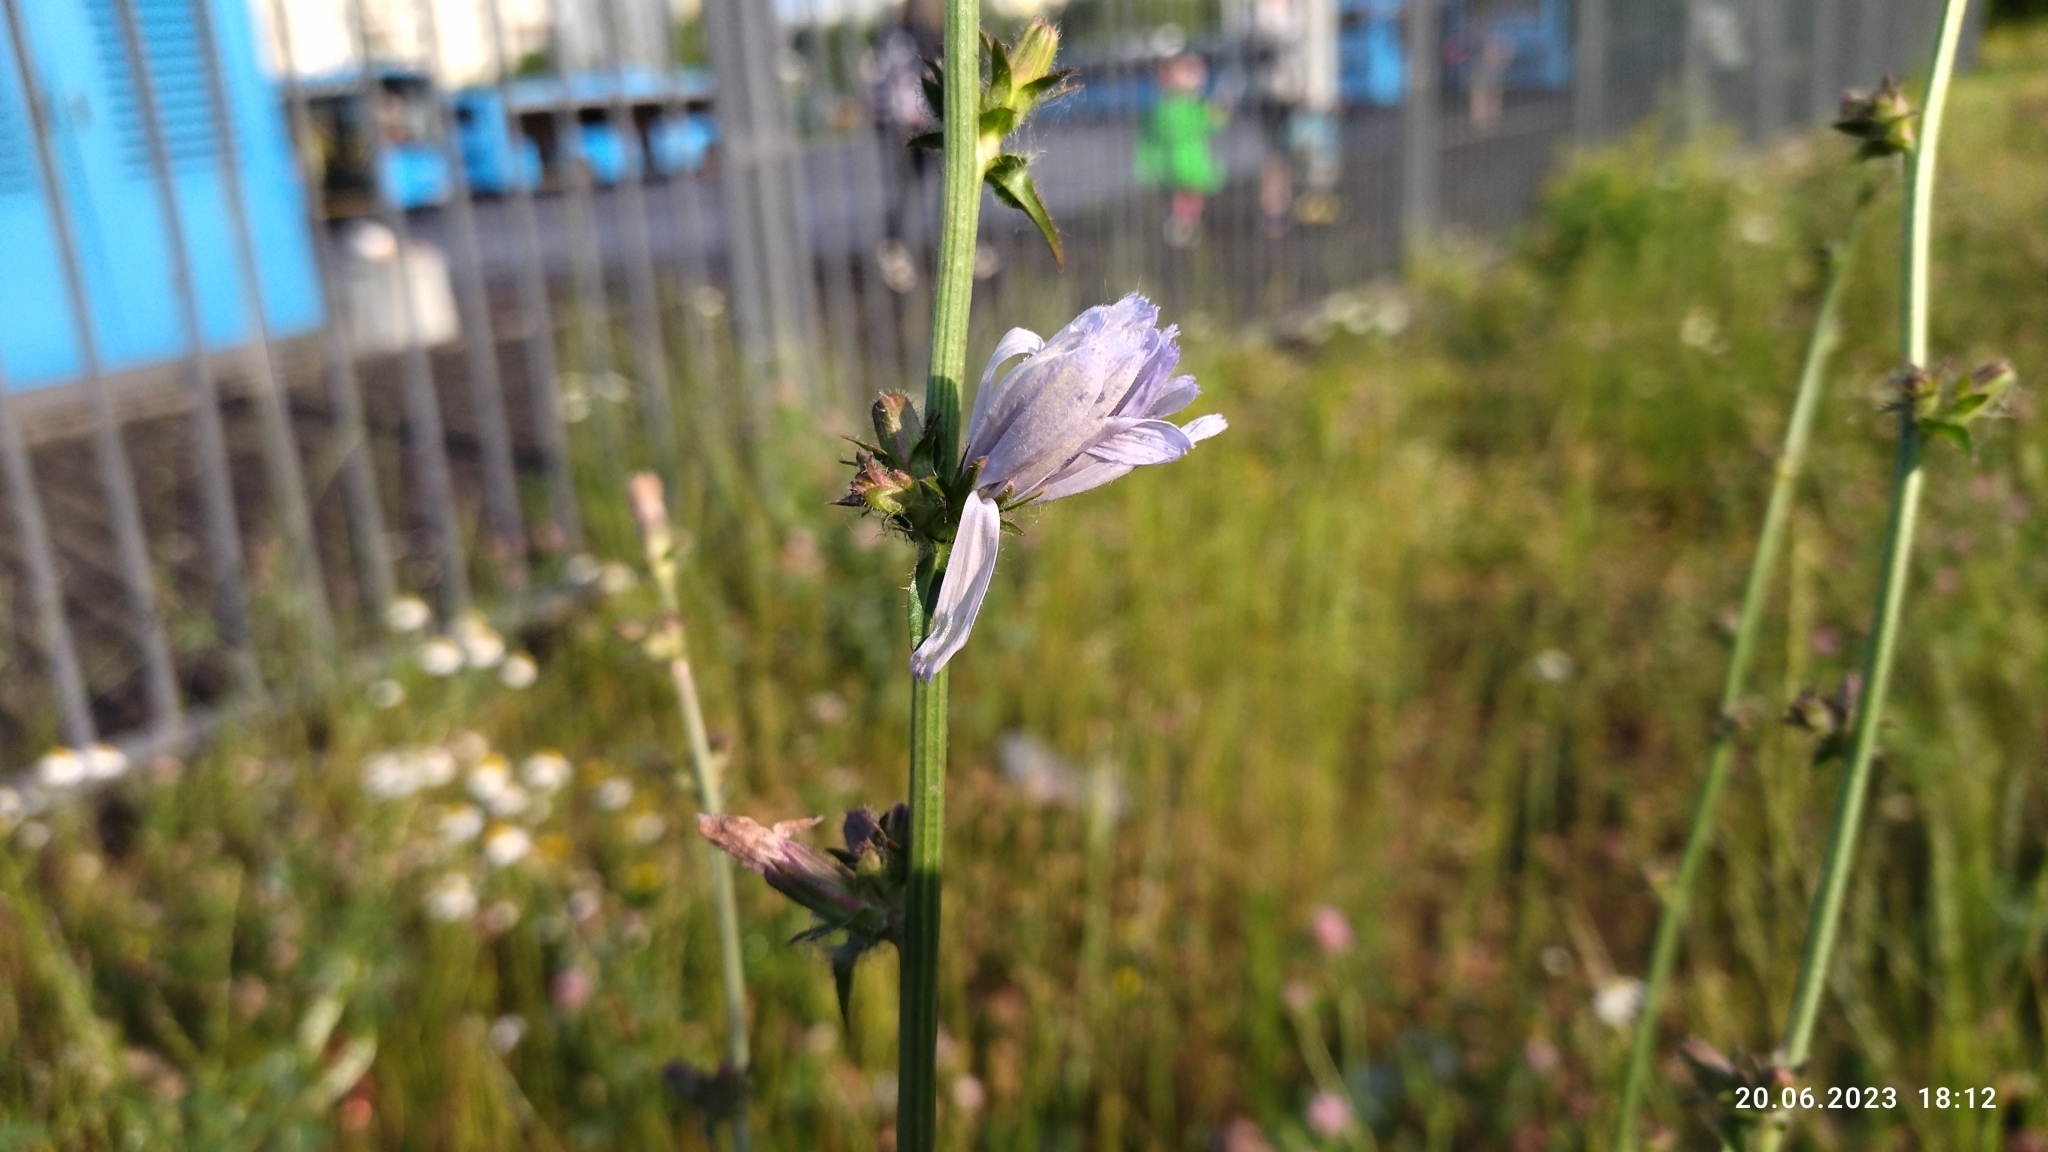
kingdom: Plantae
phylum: Tracheophyta
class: Magnoliopsida
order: Asterales
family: Asteraceae
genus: Cichorium
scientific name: Cichorium intybus
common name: Chicory
